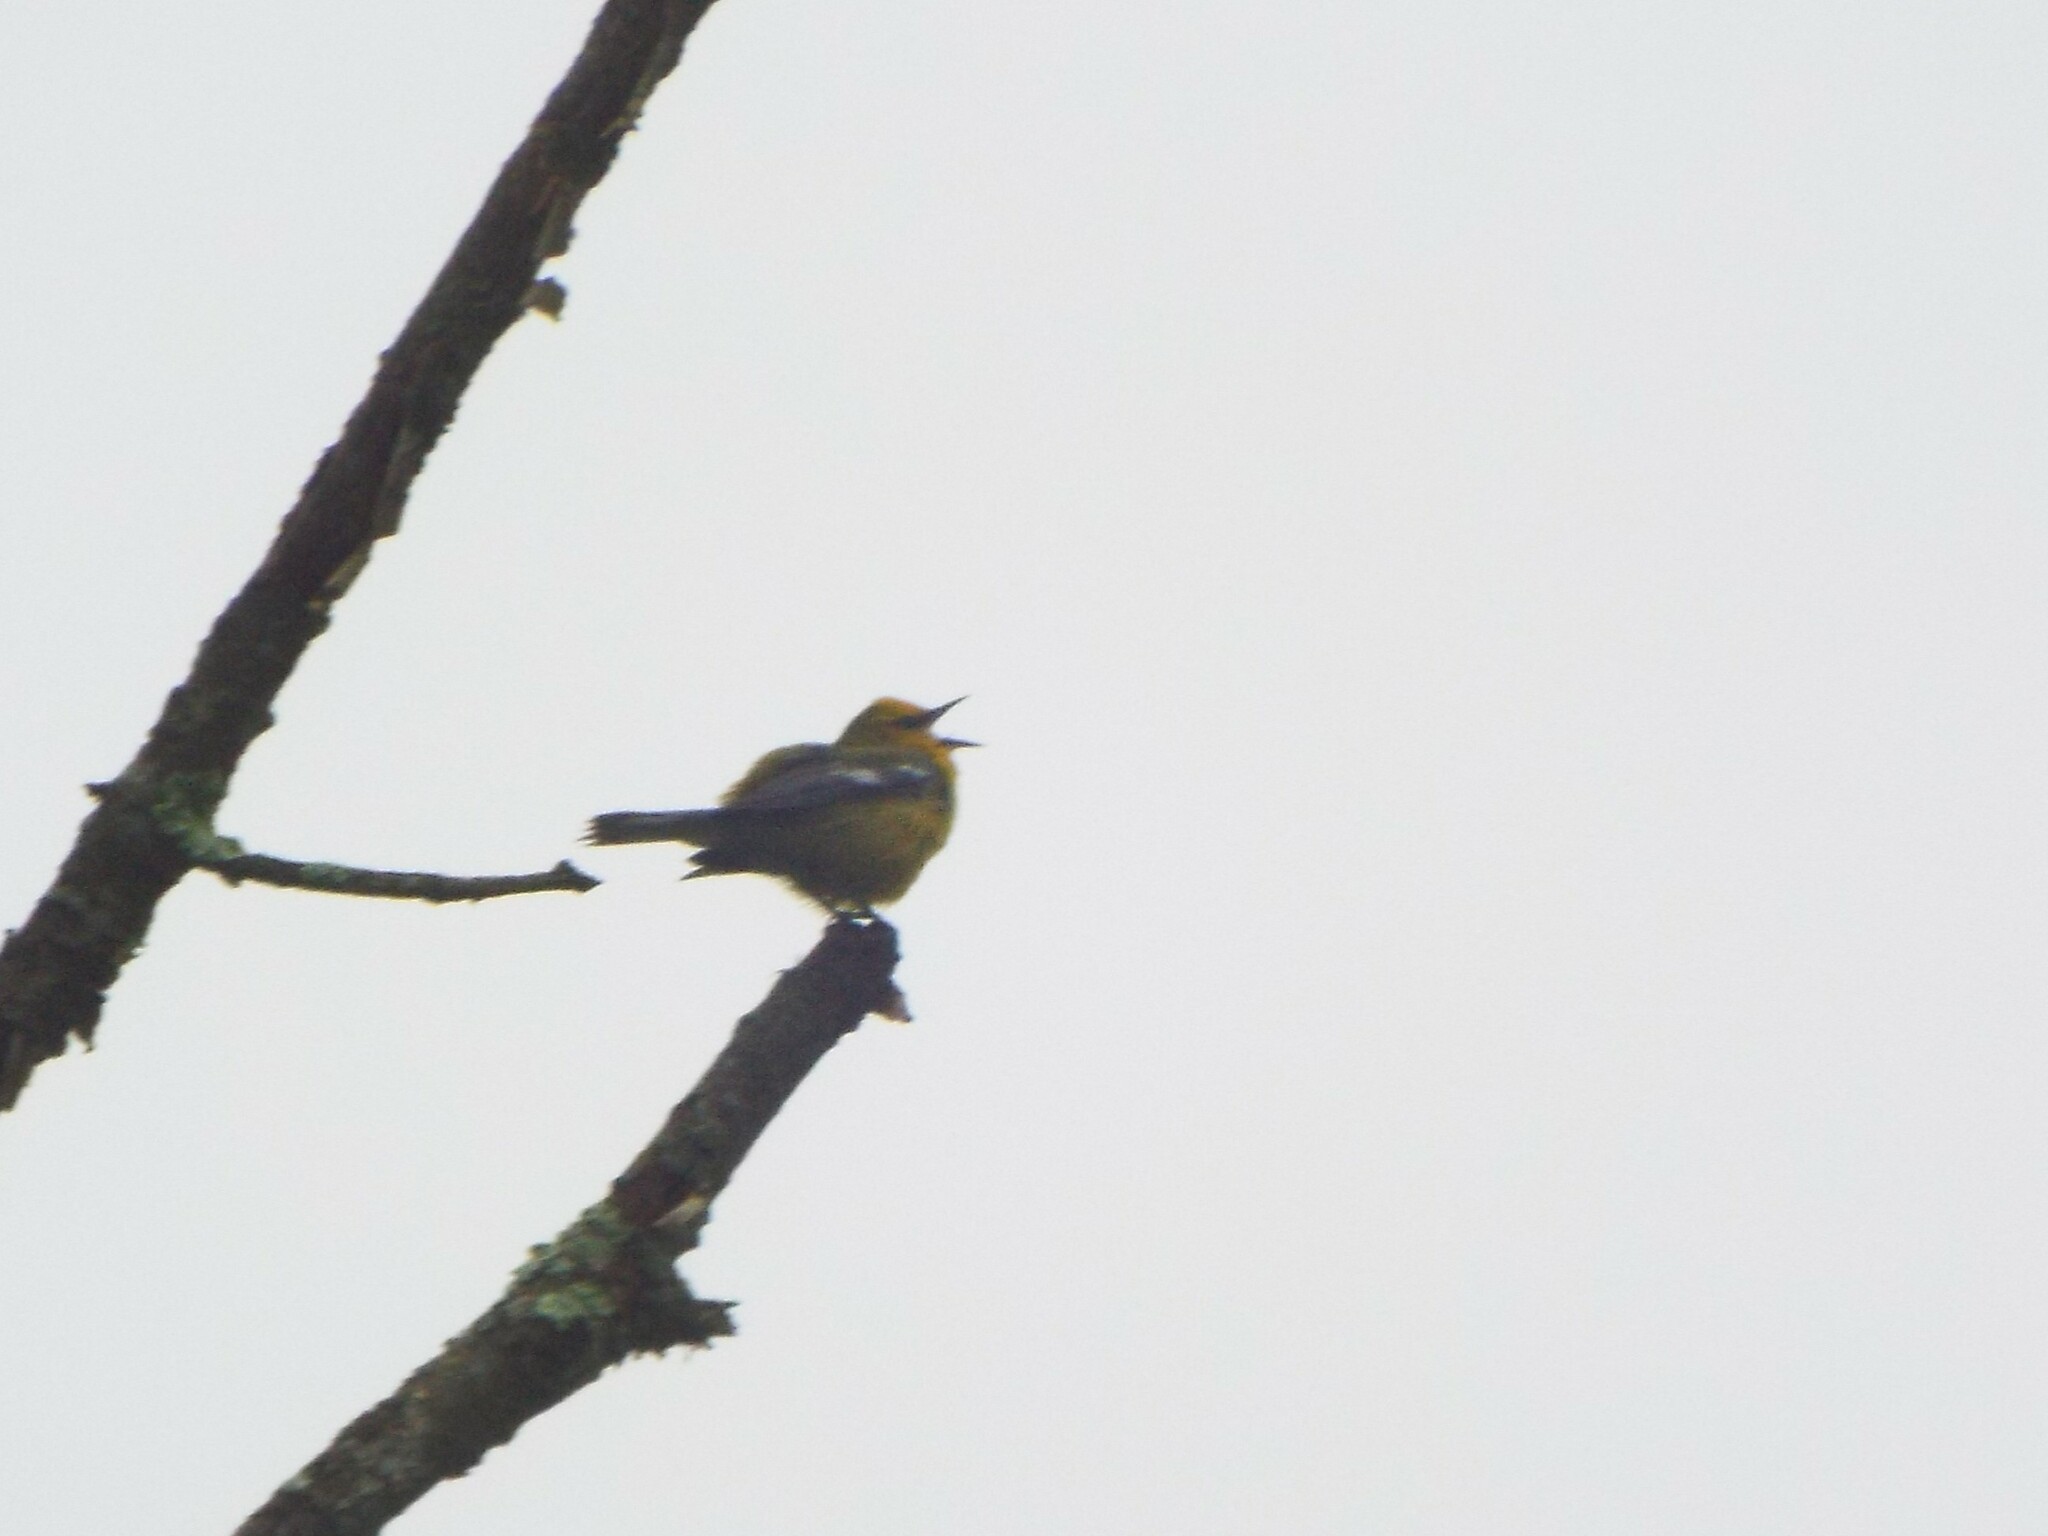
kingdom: Animalia
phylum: Chordata
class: Aves
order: Passeriformes
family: Parulidae
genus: Vermivora
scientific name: Vermivora cyanoptera
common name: Blue-winged warbler
